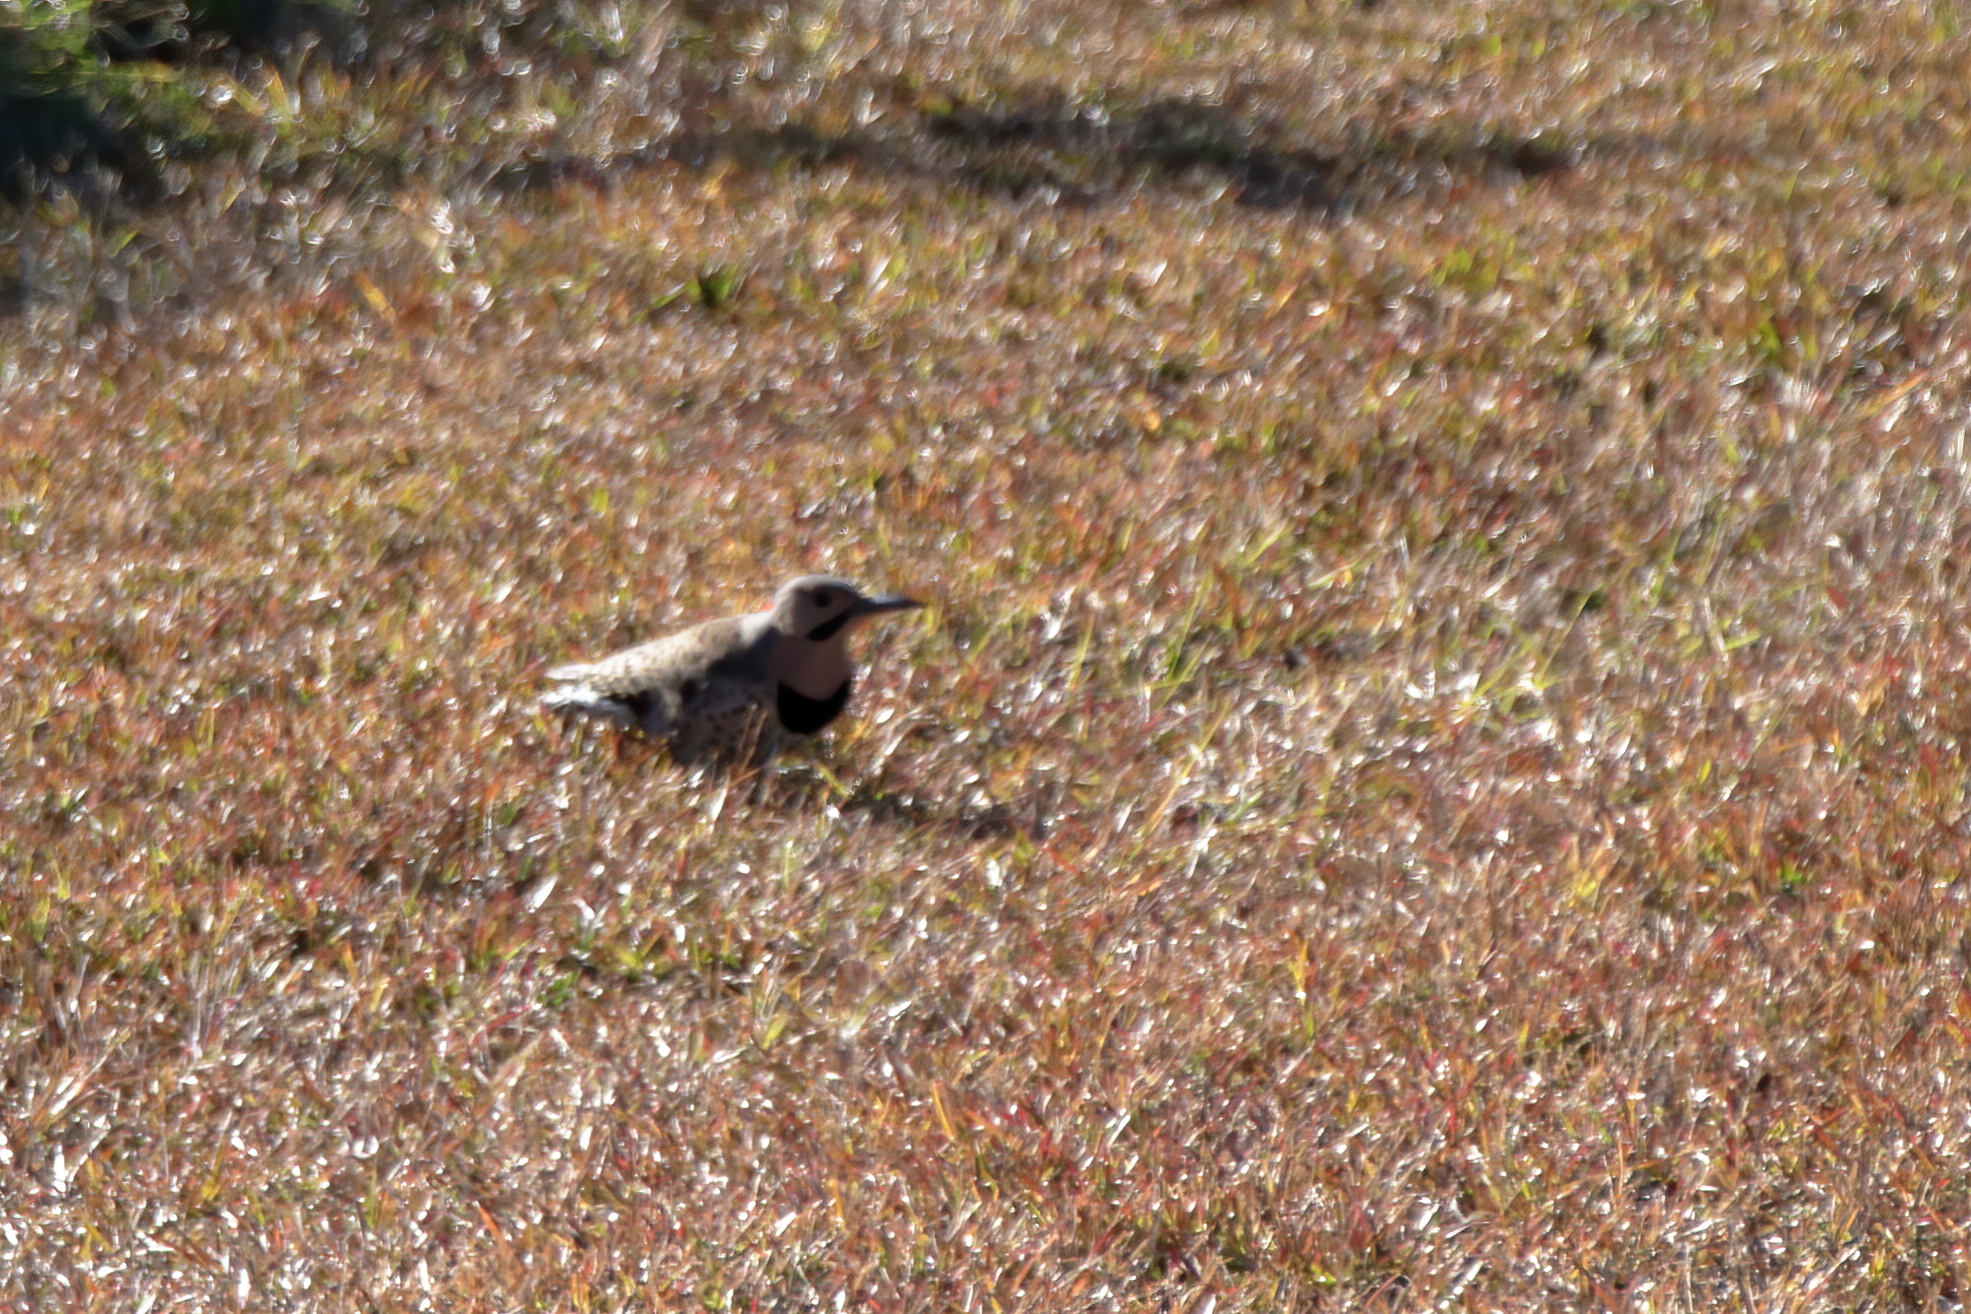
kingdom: Animalia
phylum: Chordata
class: Aves
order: Piciformes
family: Picidae
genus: Colaptes
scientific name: Colaptes auratus
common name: Northern flicker
